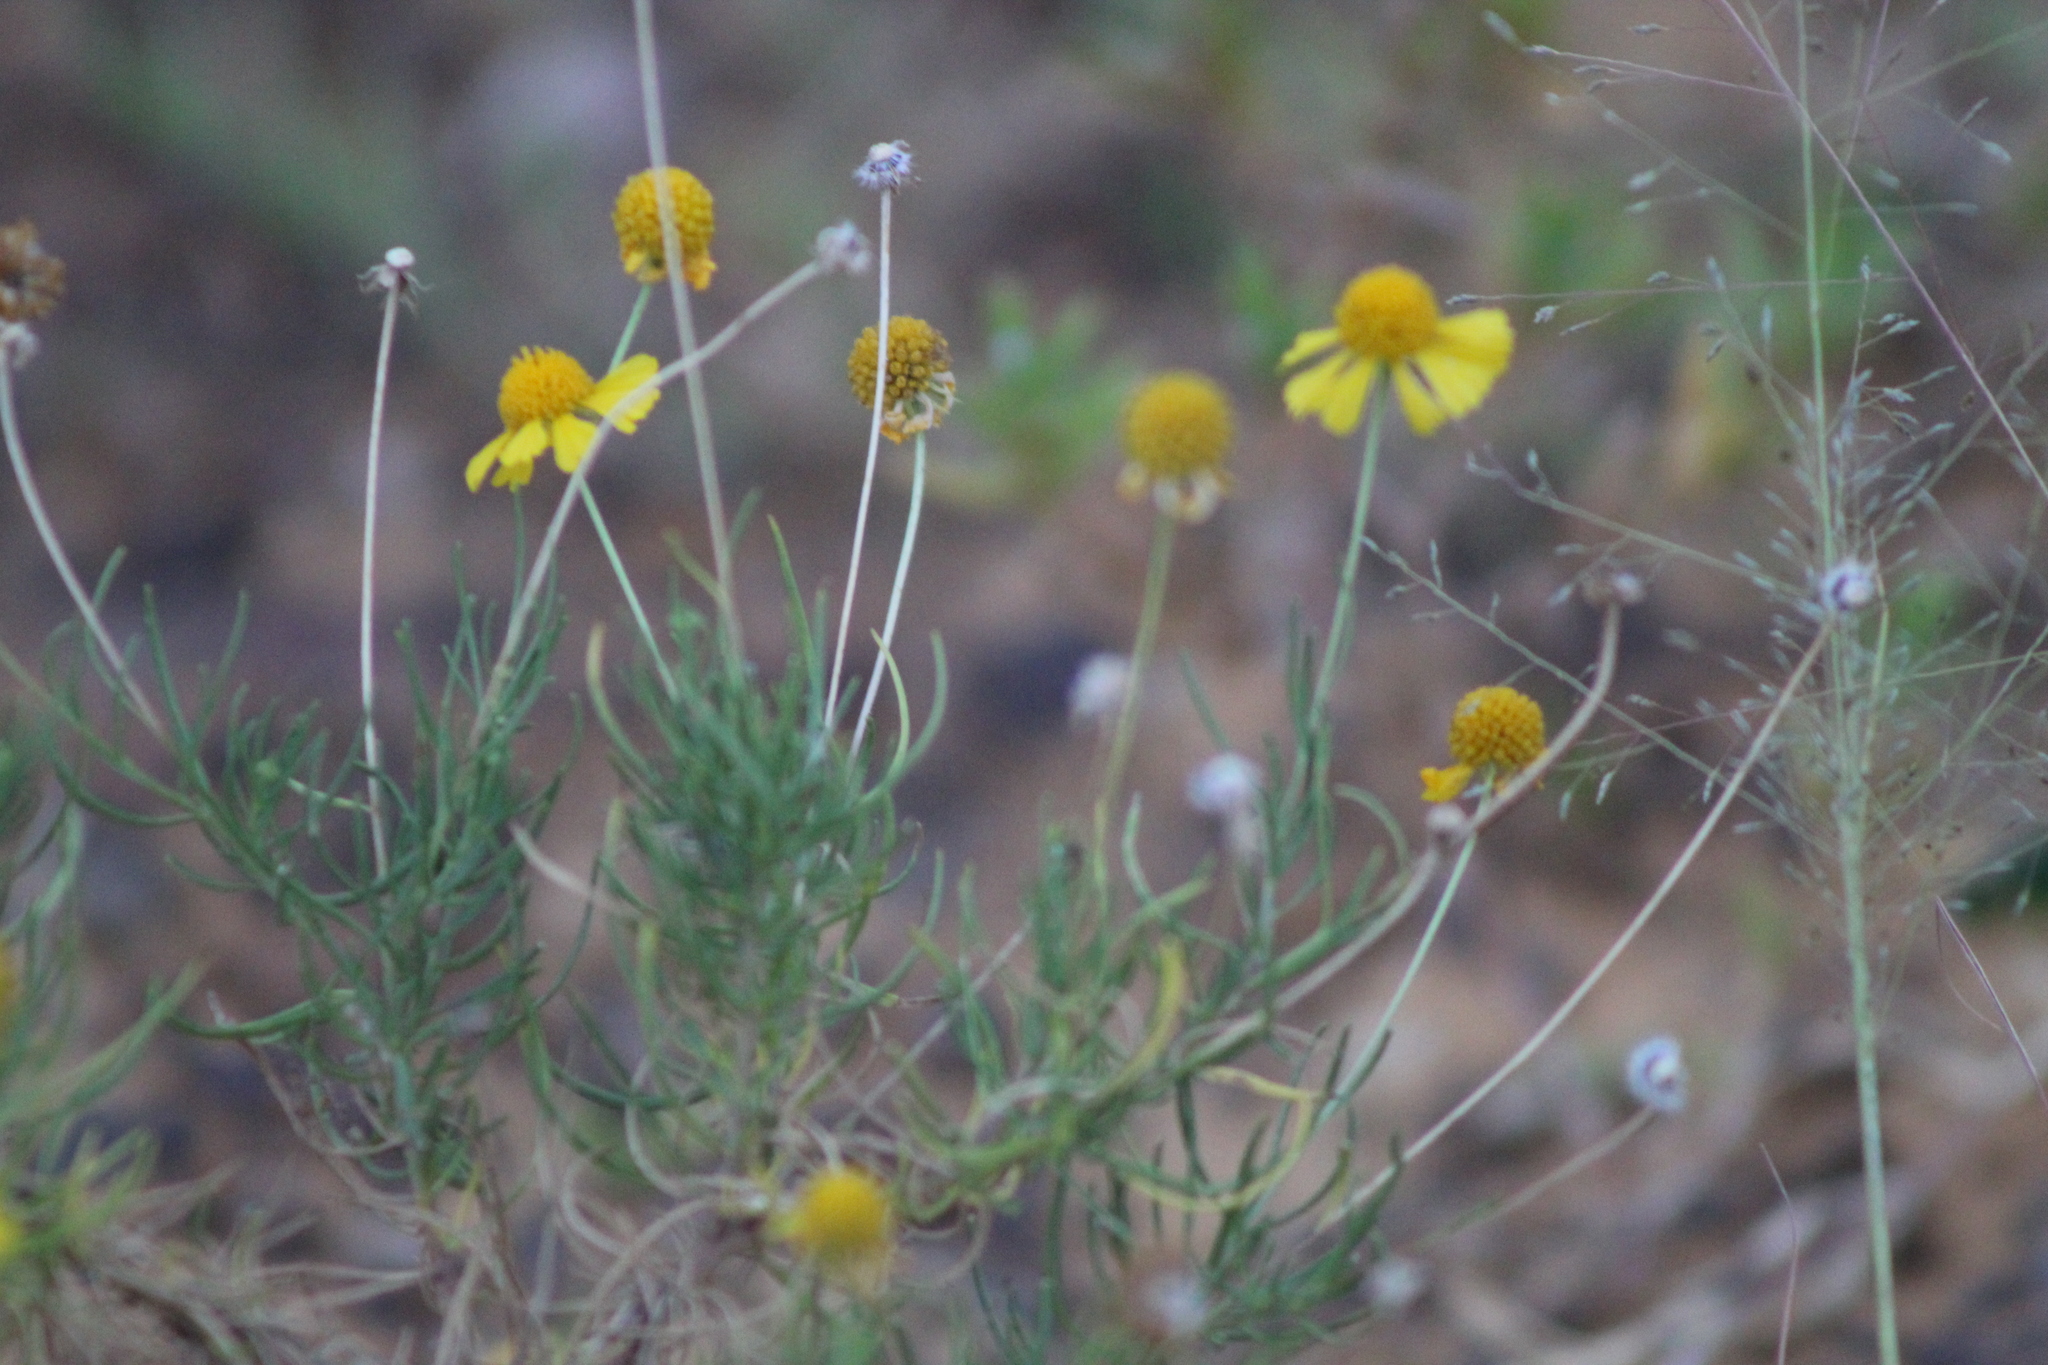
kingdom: Plantae
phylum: Tracheophyta
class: Magnoliopsida
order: Asterales
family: Asteraceae
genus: Helenium
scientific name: Helenium amarum
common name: Bitter sneezeweed
